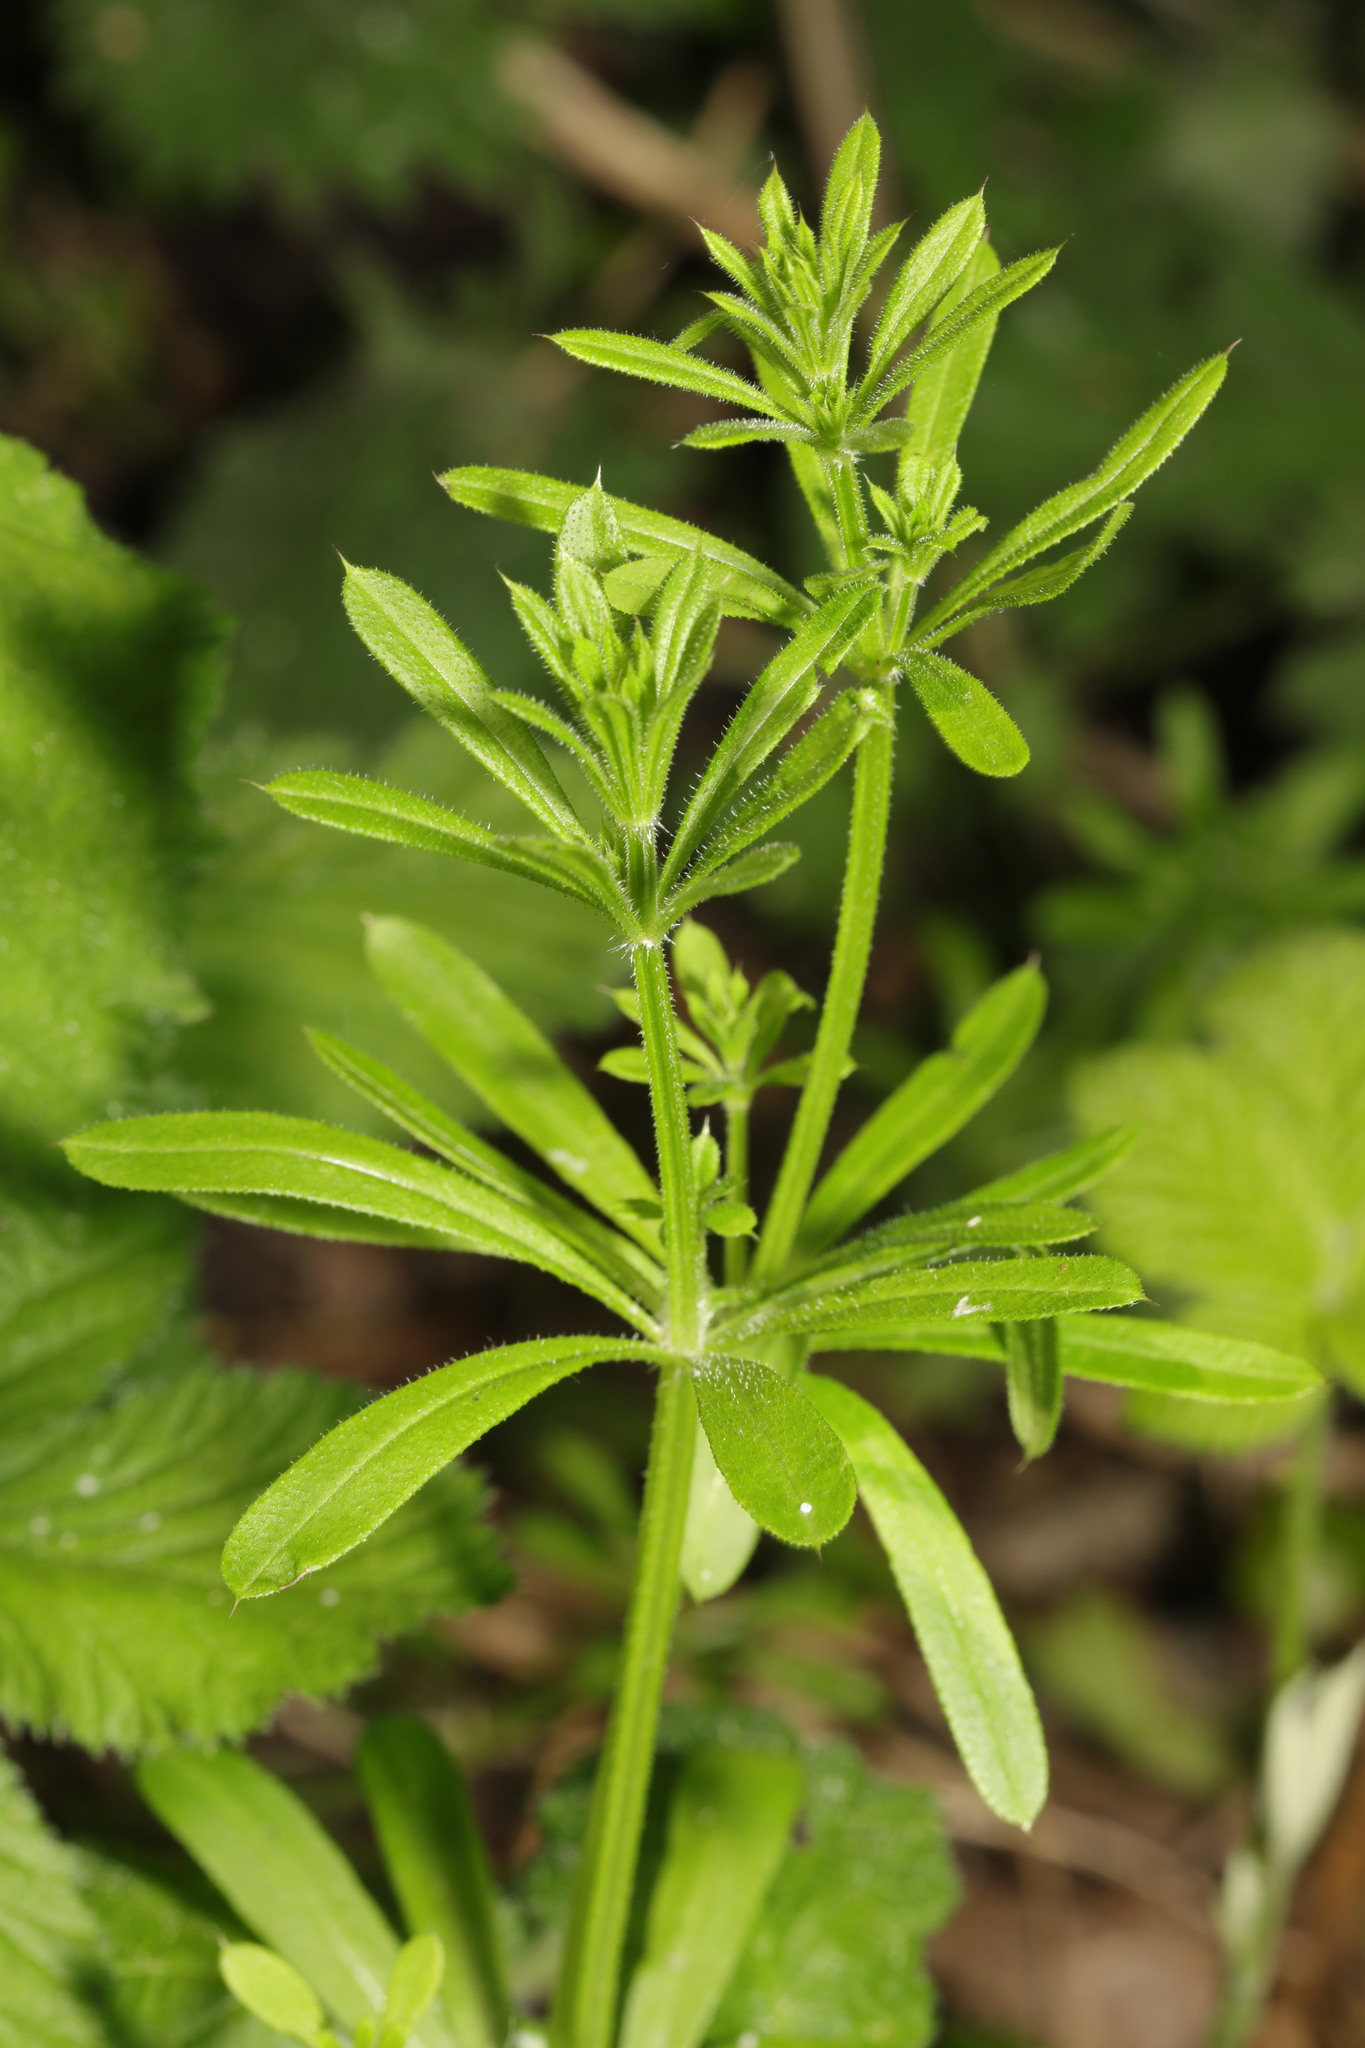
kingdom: Plantae
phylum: Tracheophyta
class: Magnoliopsida
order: Gentianales
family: Rubiaceae
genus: Galium
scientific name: Galium aparine
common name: Cleavers
